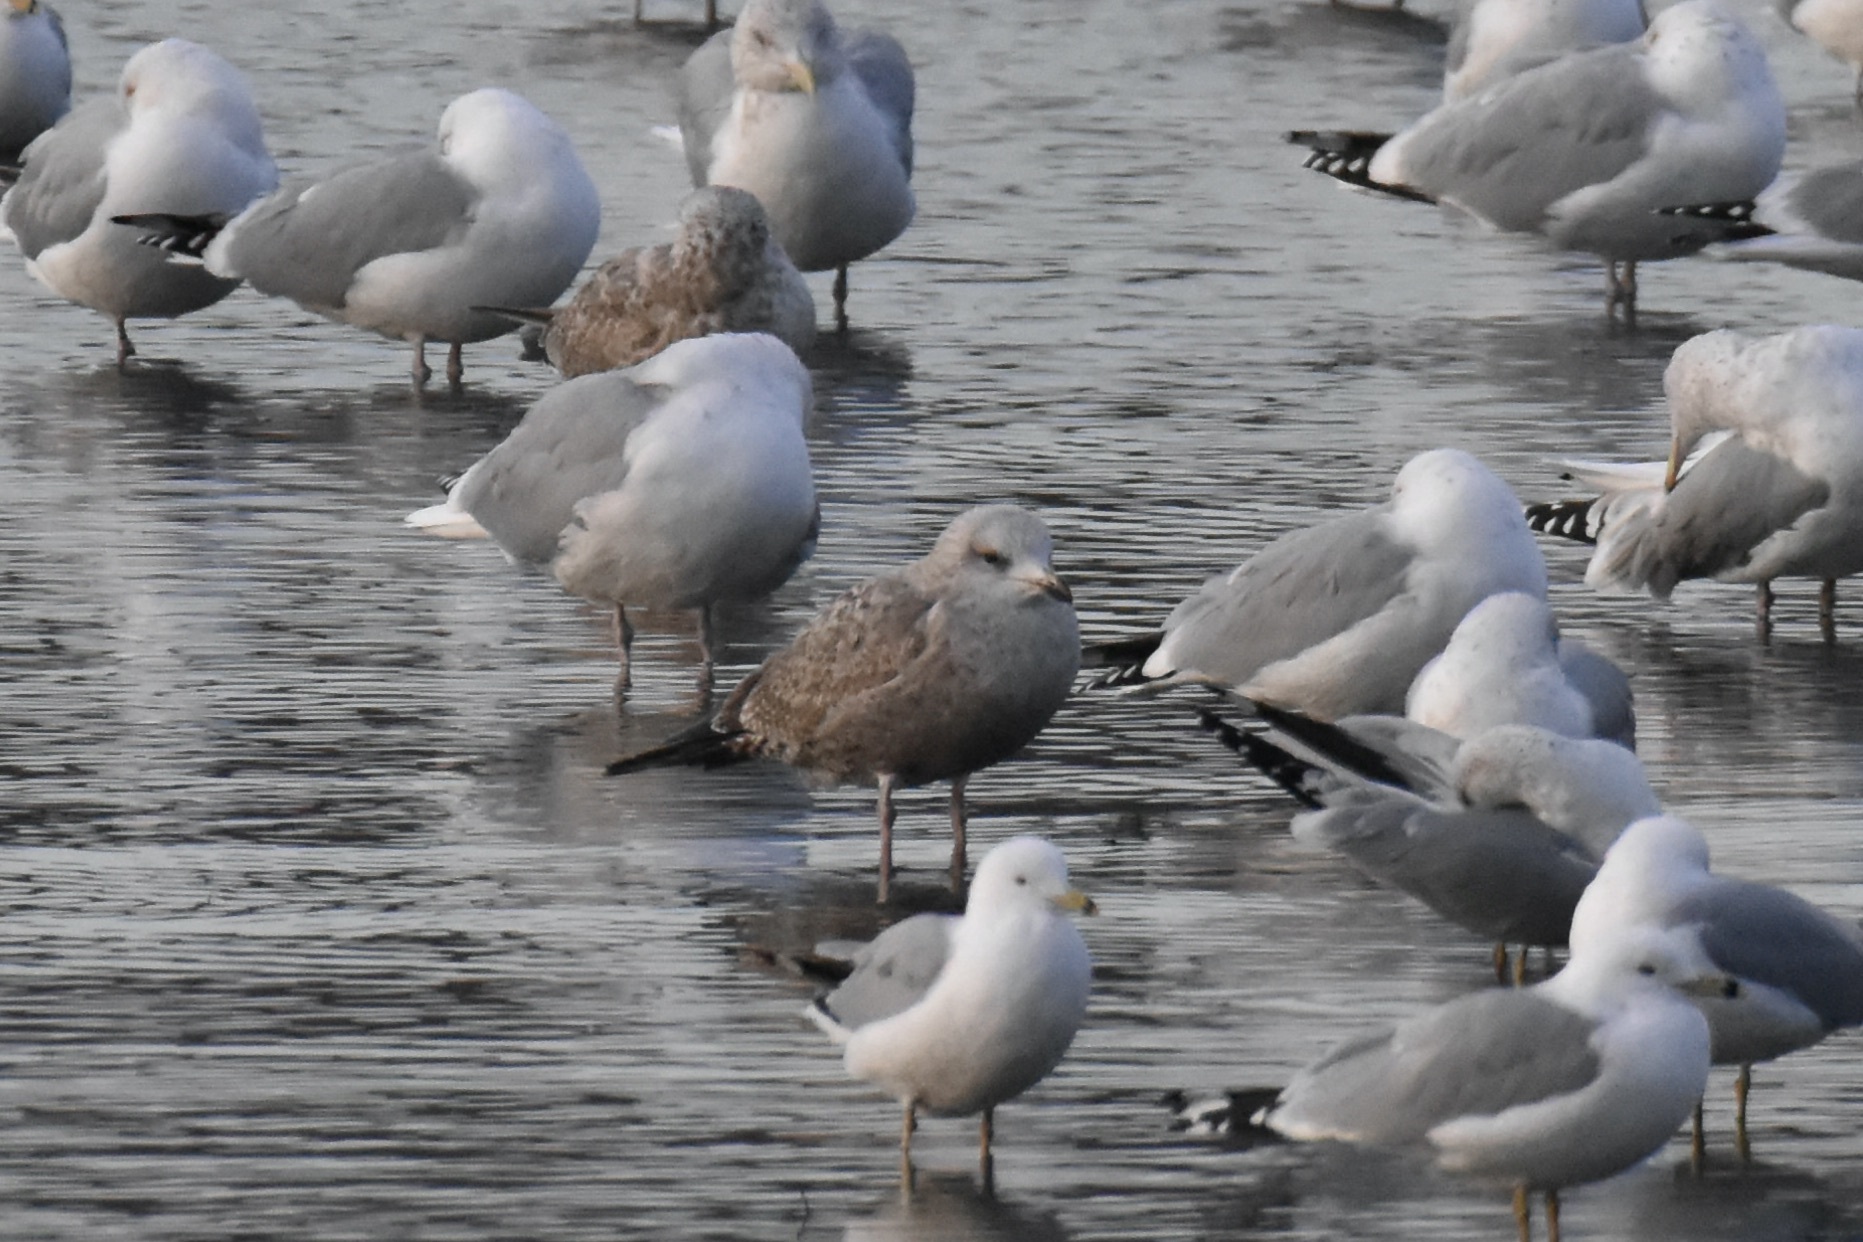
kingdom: Animalia
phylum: Chordata
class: Aves
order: Charadriiformes
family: Laridae
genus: Larus
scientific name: Larus argentatus
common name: Herring gull
